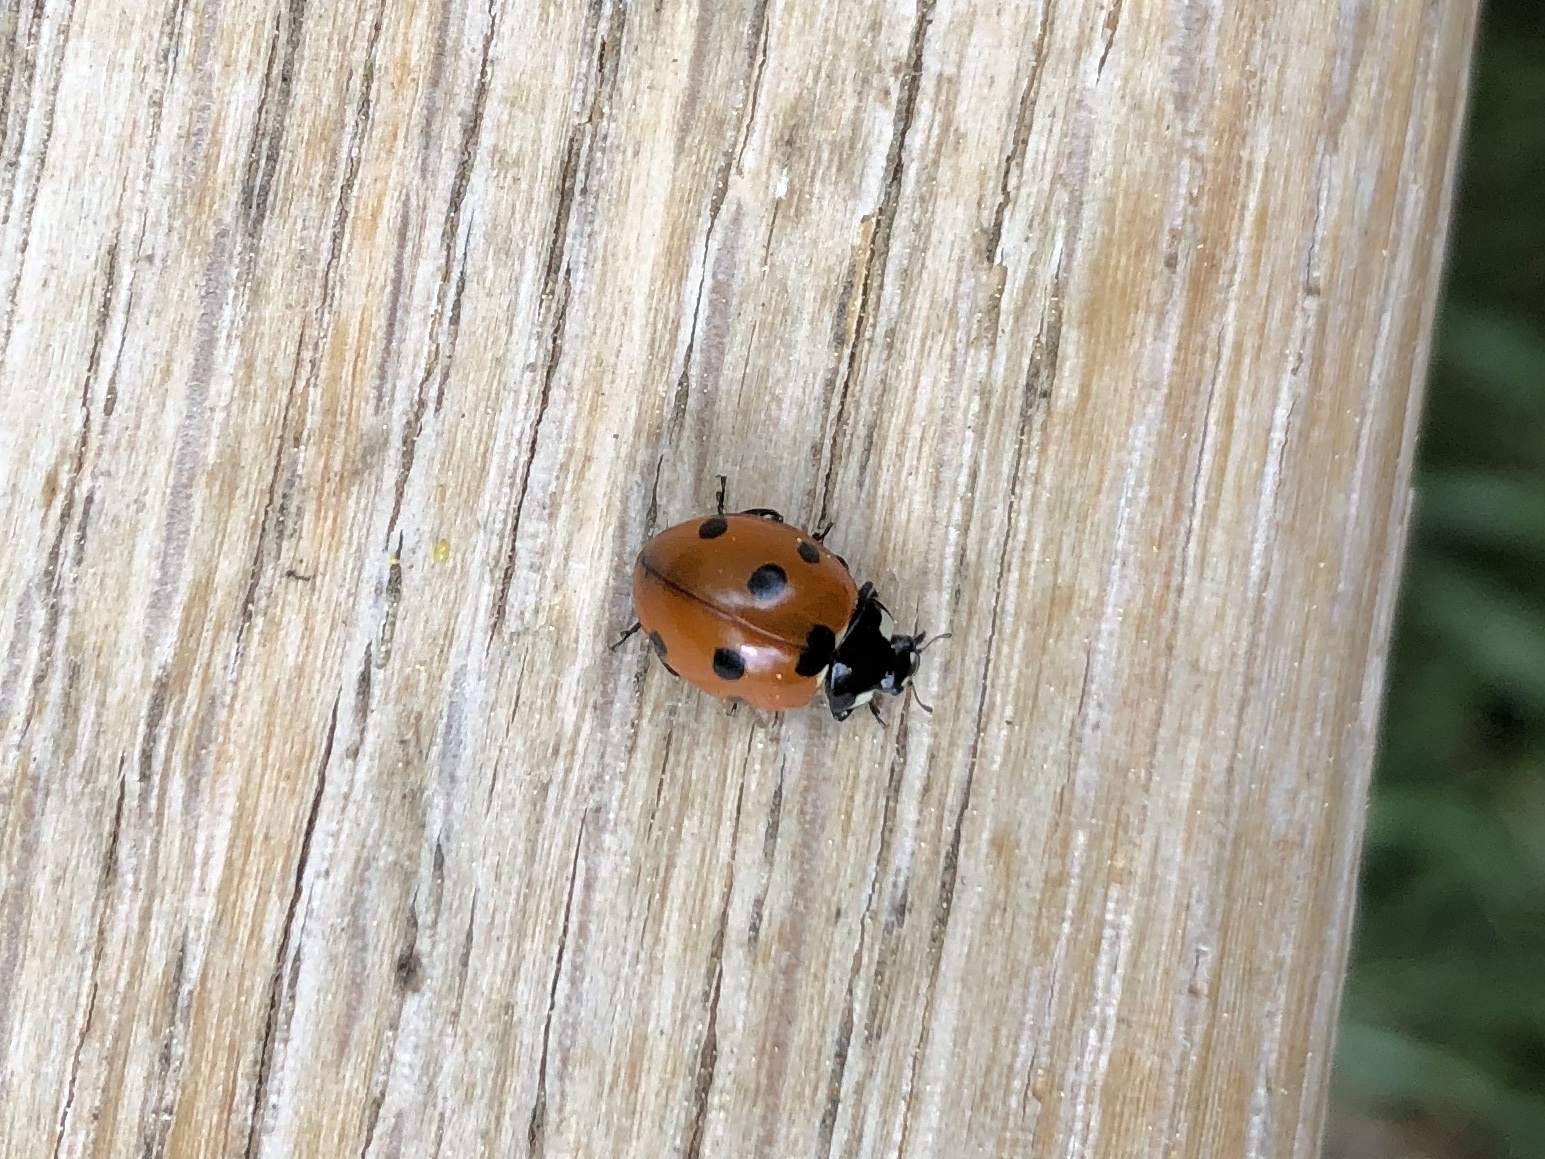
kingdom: Animalia
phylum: Arthropoda
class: Insecta
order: Coleoptera
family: Coccinellidae
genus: Coccinella
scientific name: Coccinella septempunctata
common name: Sevenspotted lady beetle
